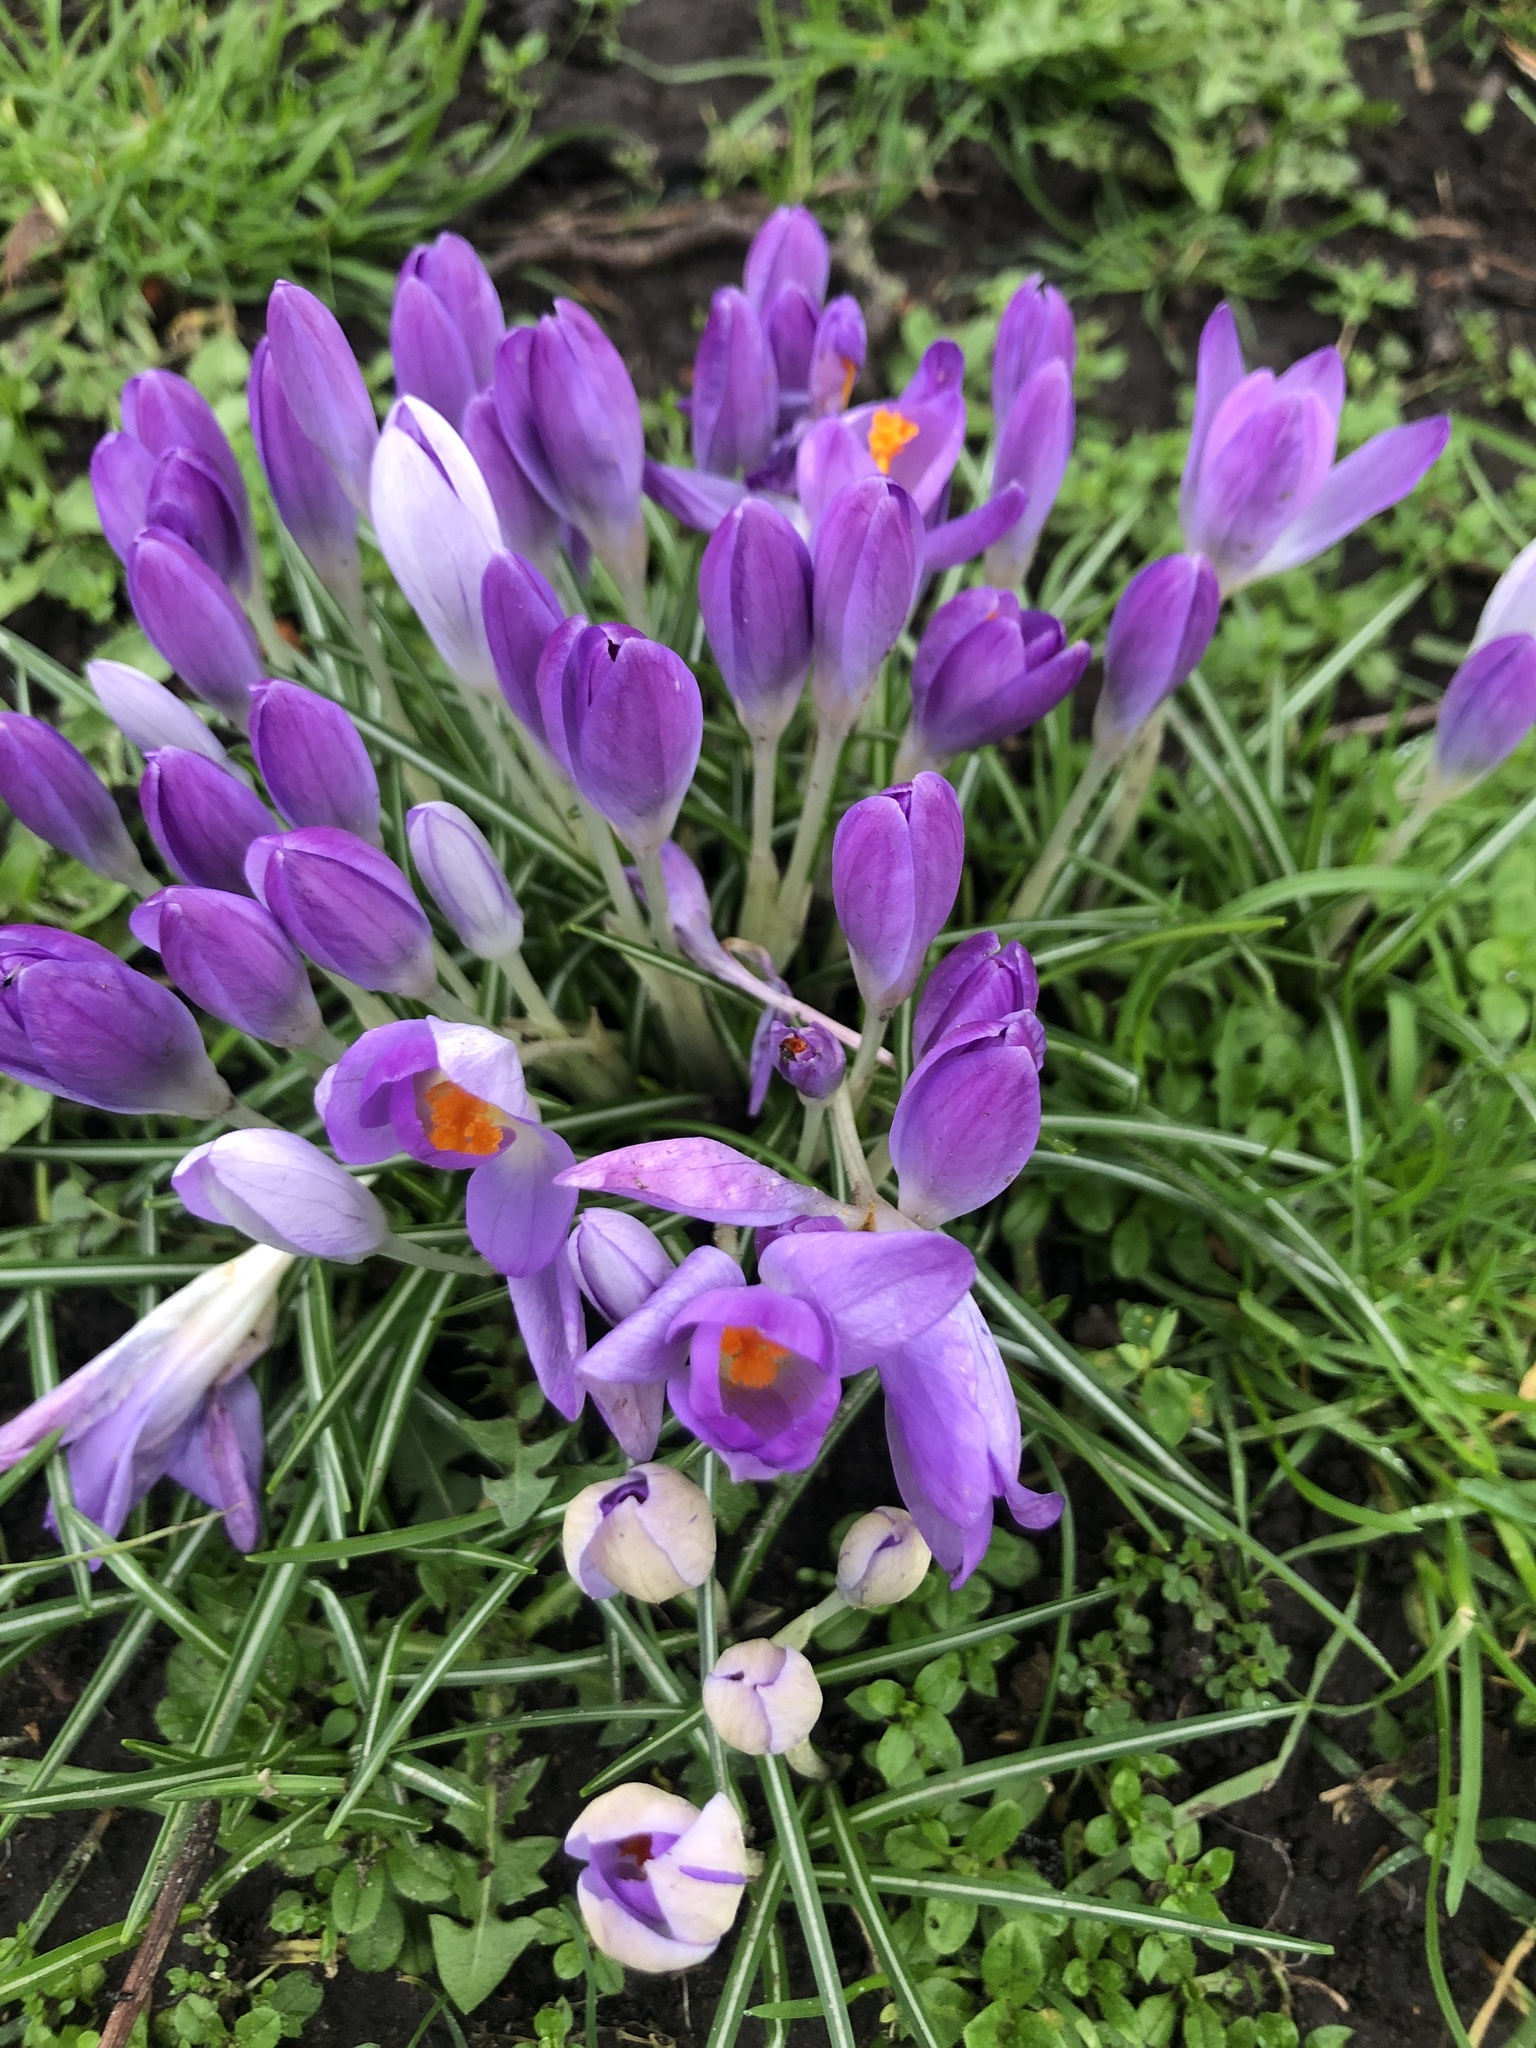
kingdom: Plantae
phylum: Tracheophyta
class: Liliopsida
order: Asparagales
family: Iridaceae
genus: Crocus
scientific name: Crocus tommasinianus
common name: Early crocus
